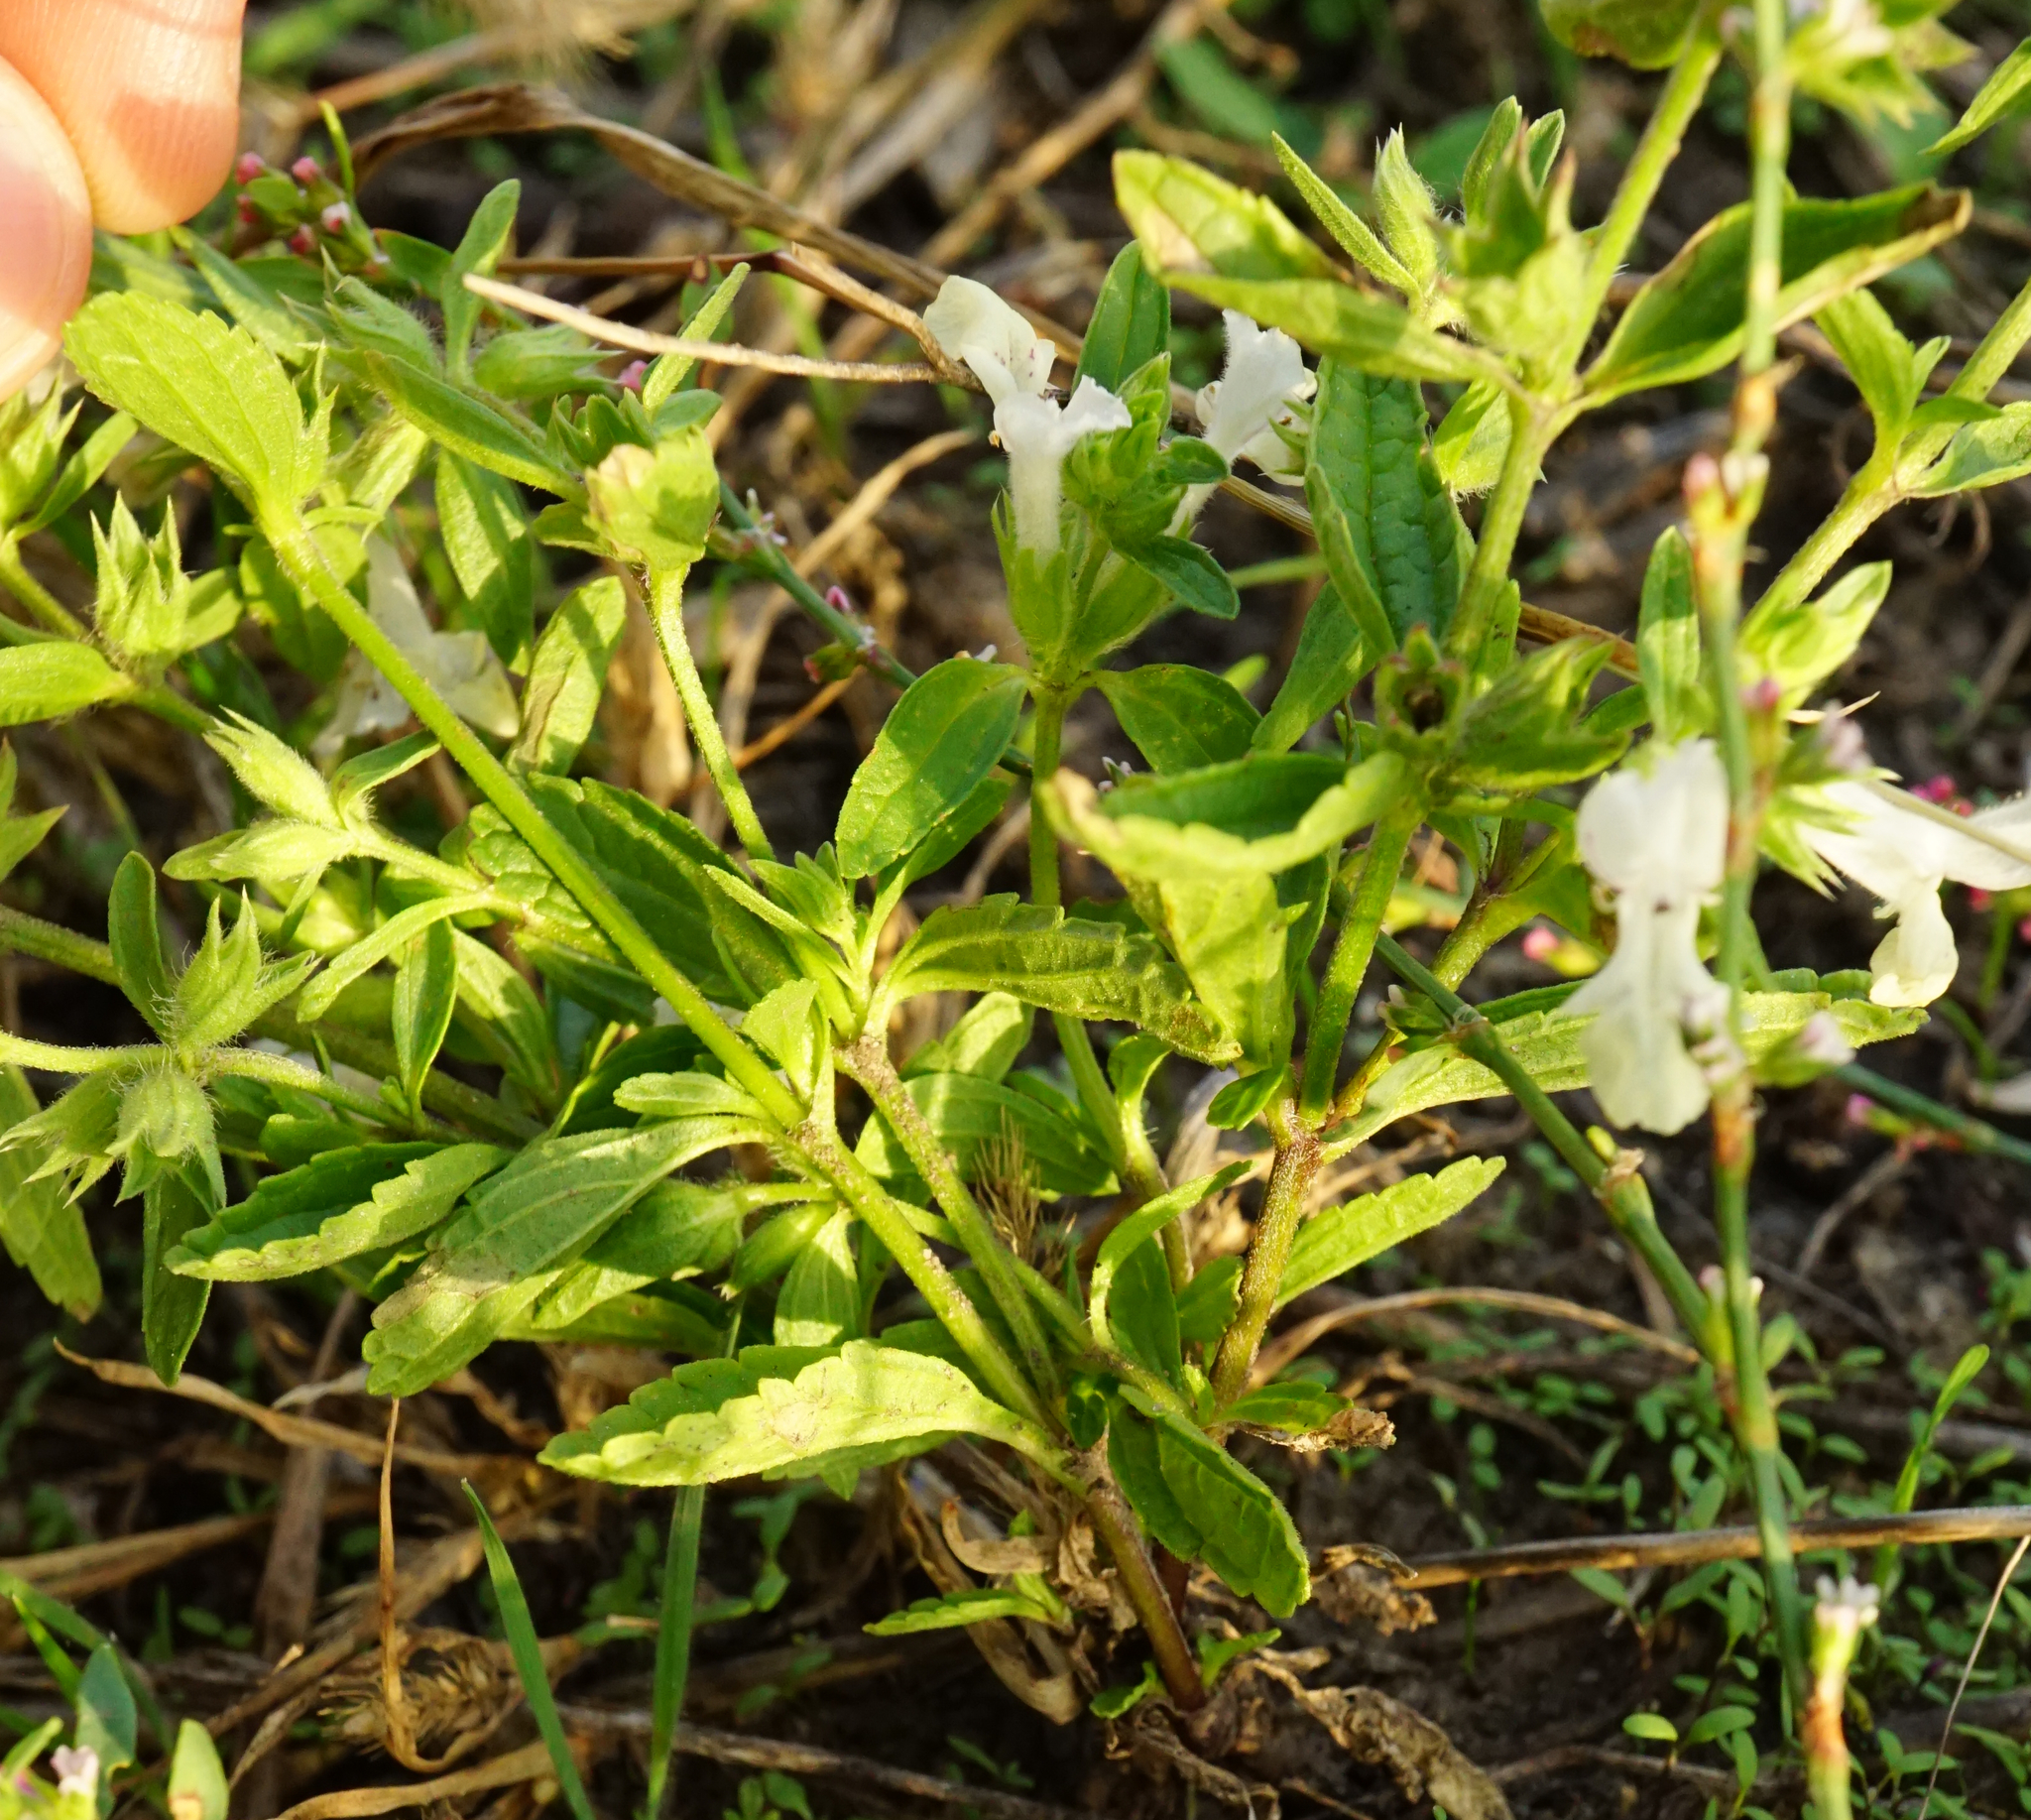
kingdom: Plantae
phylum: Tracheophyta
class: Magnoliopsida
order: Lamiales
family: Lamiaceae
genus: Stachys
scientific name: Stachys annua
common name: Annual yellow-woundwort
